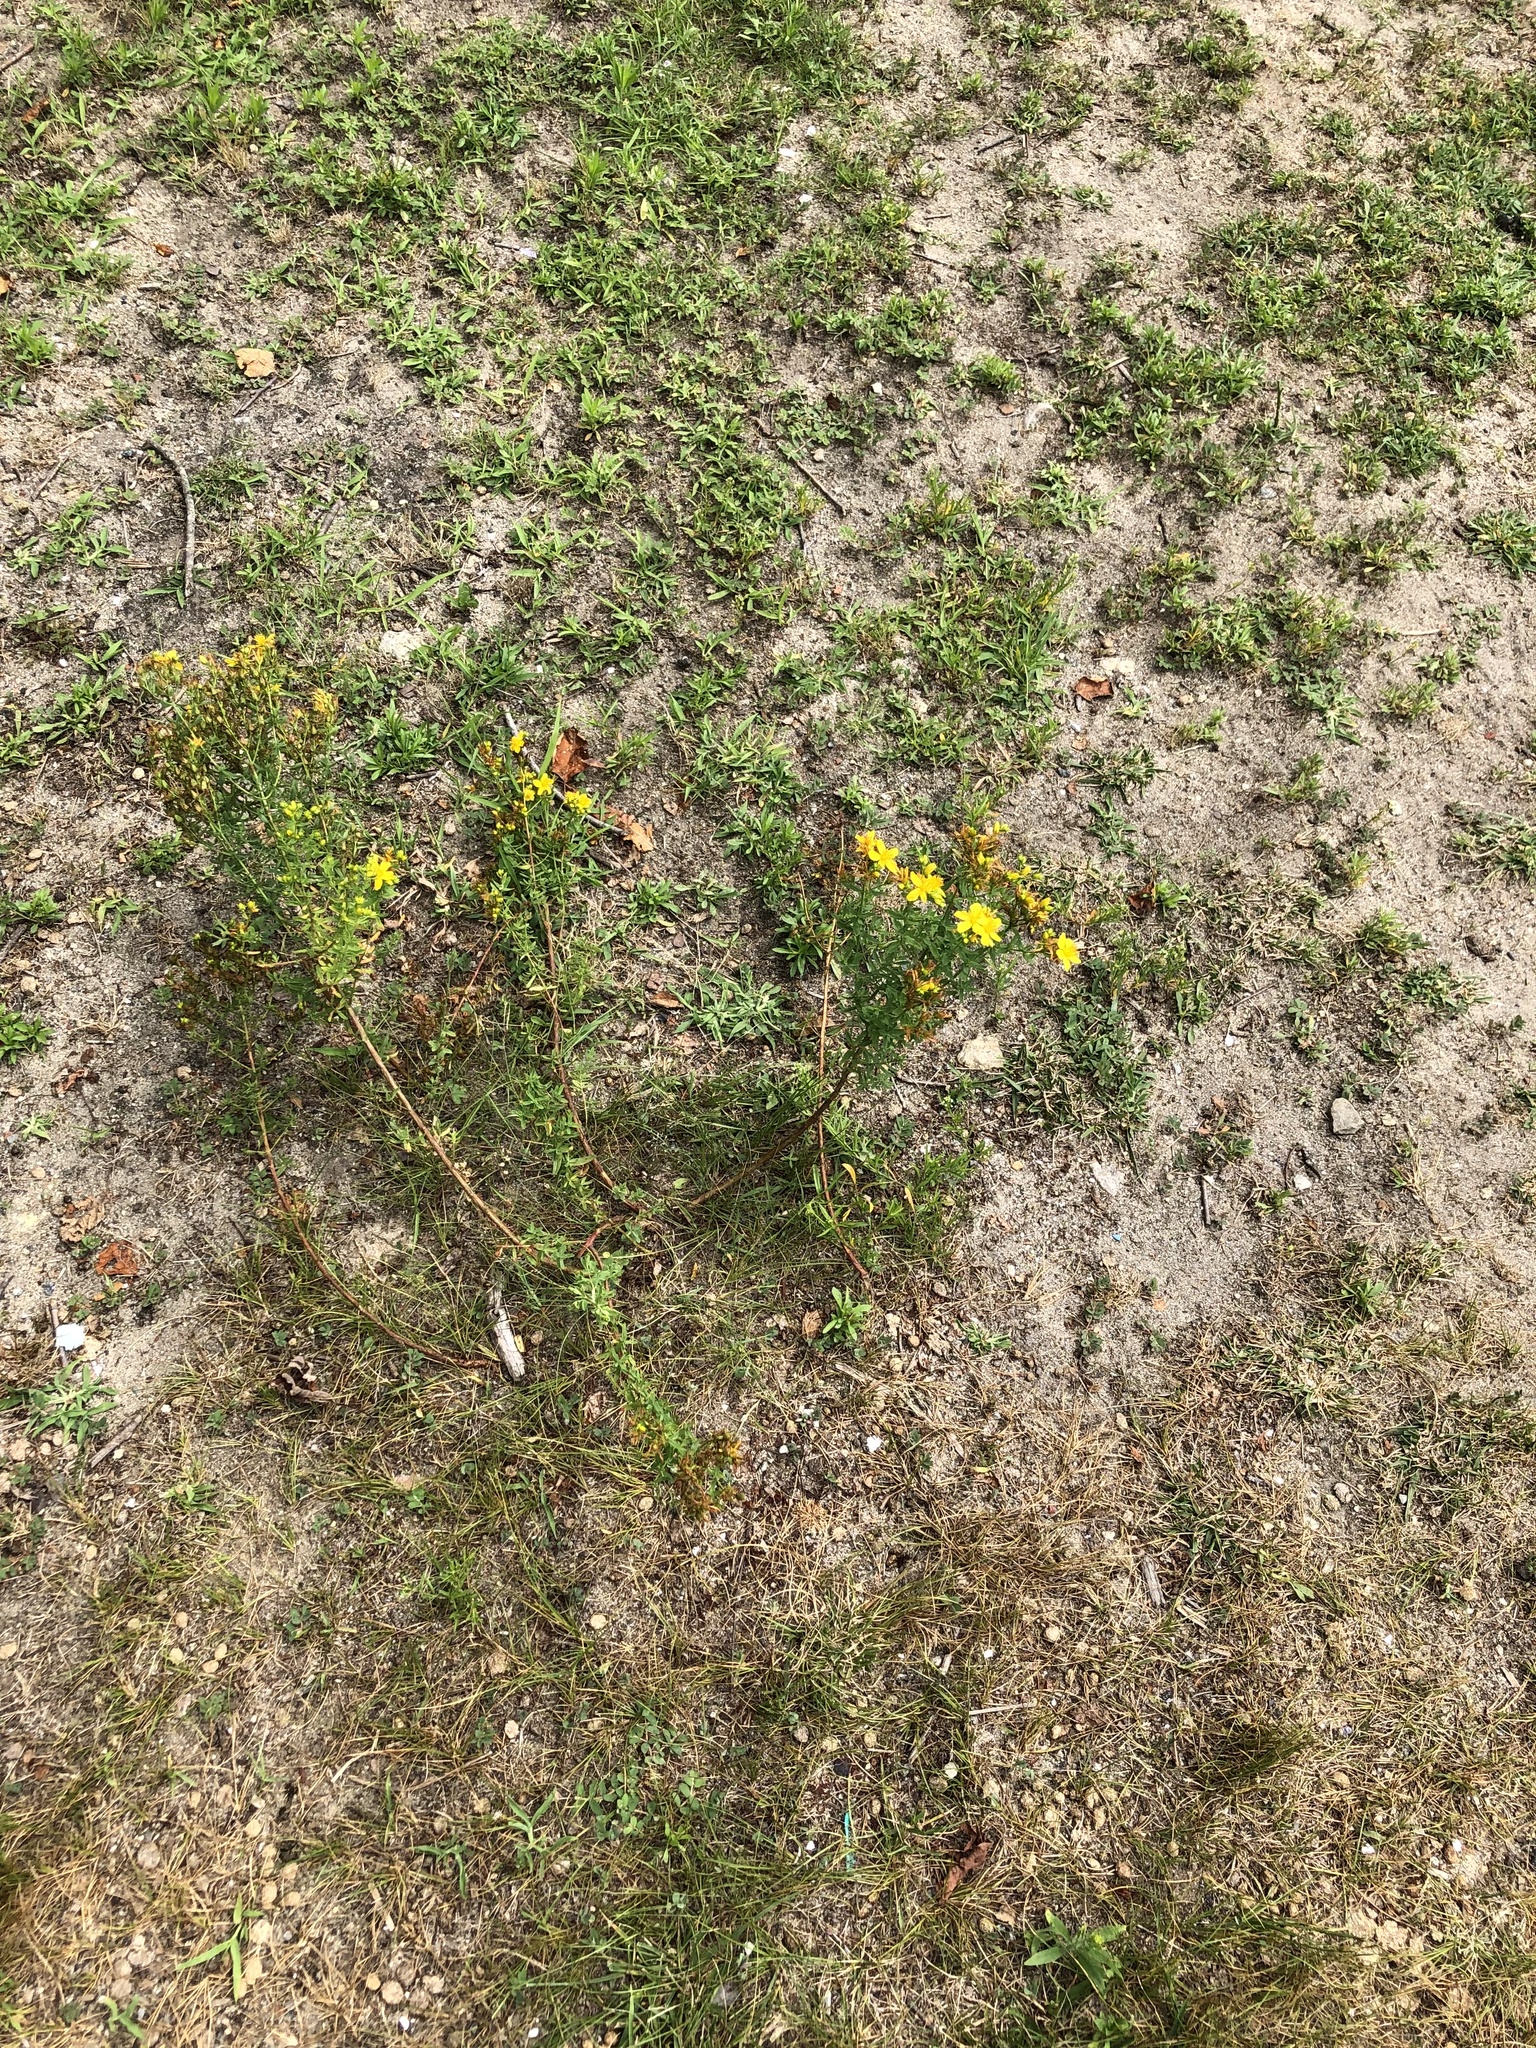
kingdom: Plantae
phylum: Tracheophyta
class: Magnoliopsida
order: Malpighiales
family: Hypericaceae
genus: Hypericum
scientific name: Hypericum perforatum
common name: Common st. johnswort
